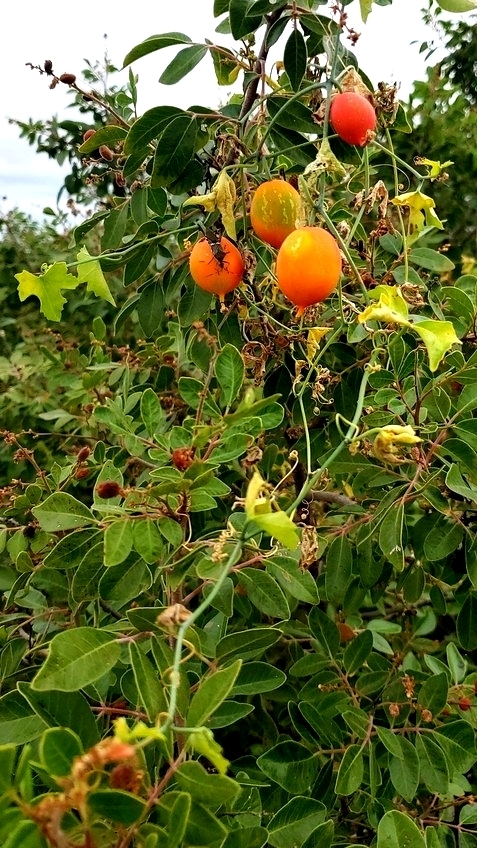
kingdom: Plantae
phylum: Tracheophyta
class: Magnoliopsida
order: Cucurbitales
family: Cucurbitaceae
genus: Ibervillea
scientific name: Ibervillea lindheimeri
